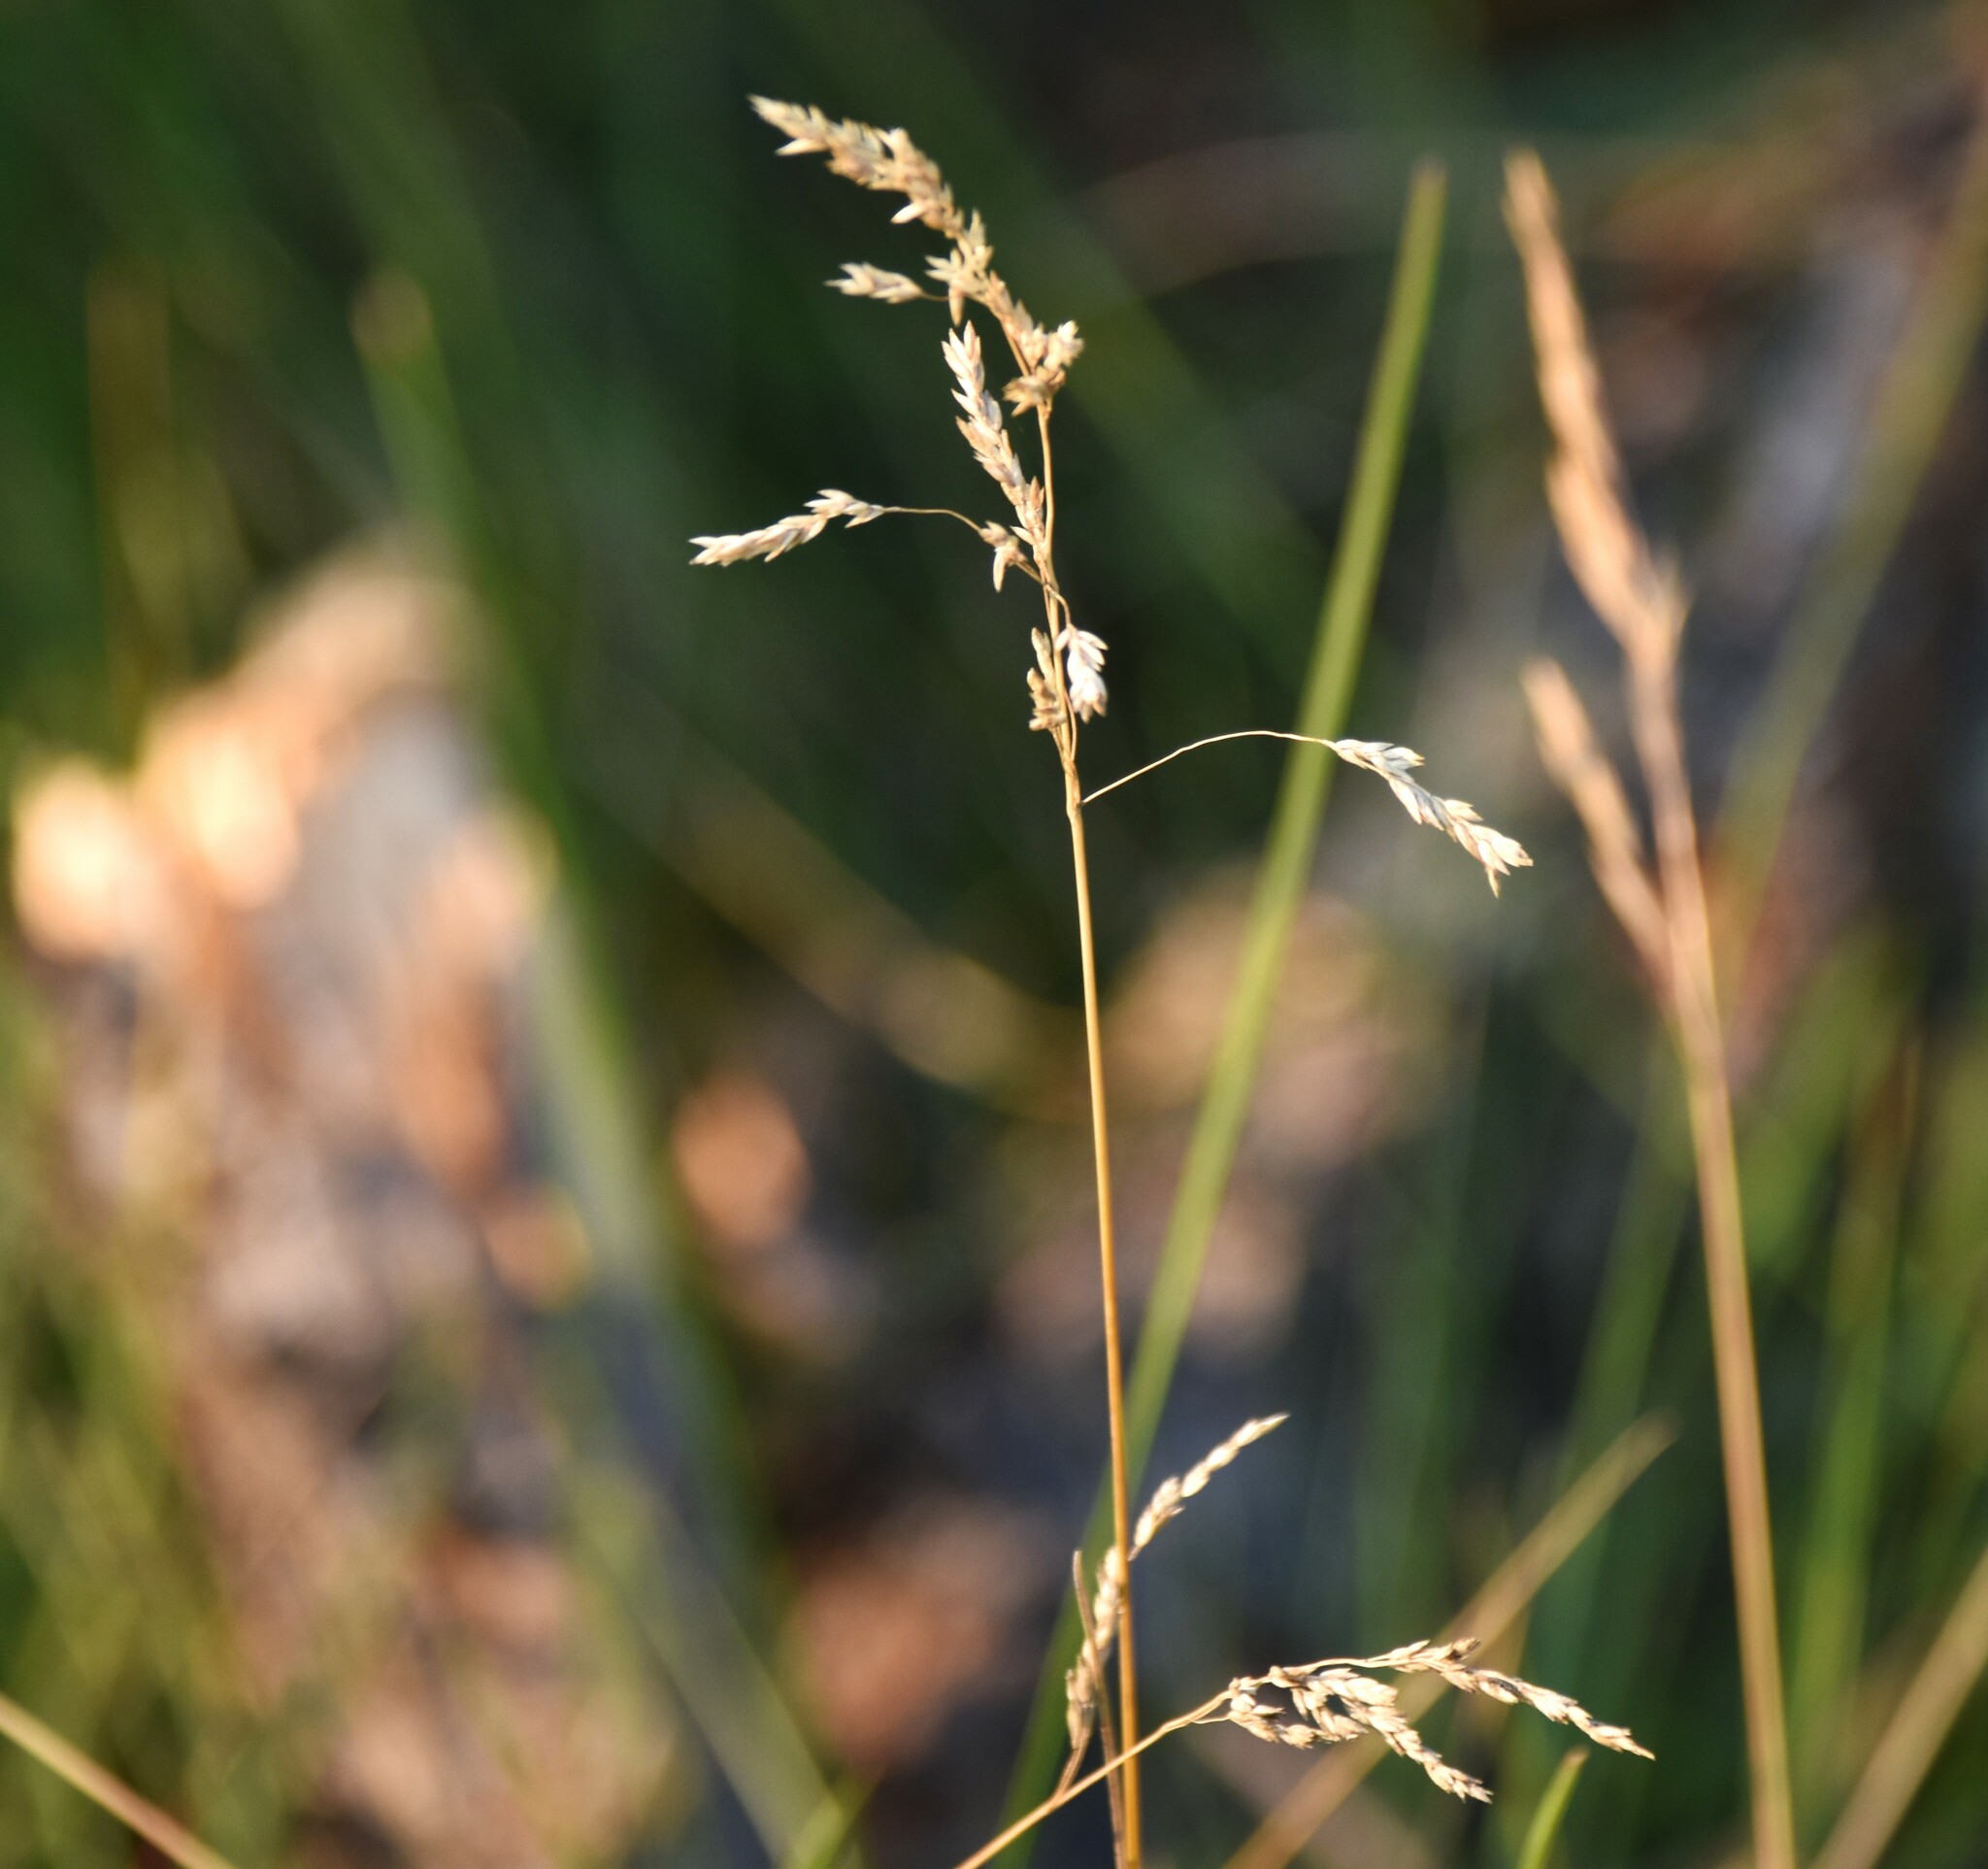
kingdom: Plantae
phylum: Tracheophyta
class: Liliopsida
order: Poales
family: Poaceae
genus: Poa
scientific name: Poa pratensis
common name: Kentucky bluegrass
